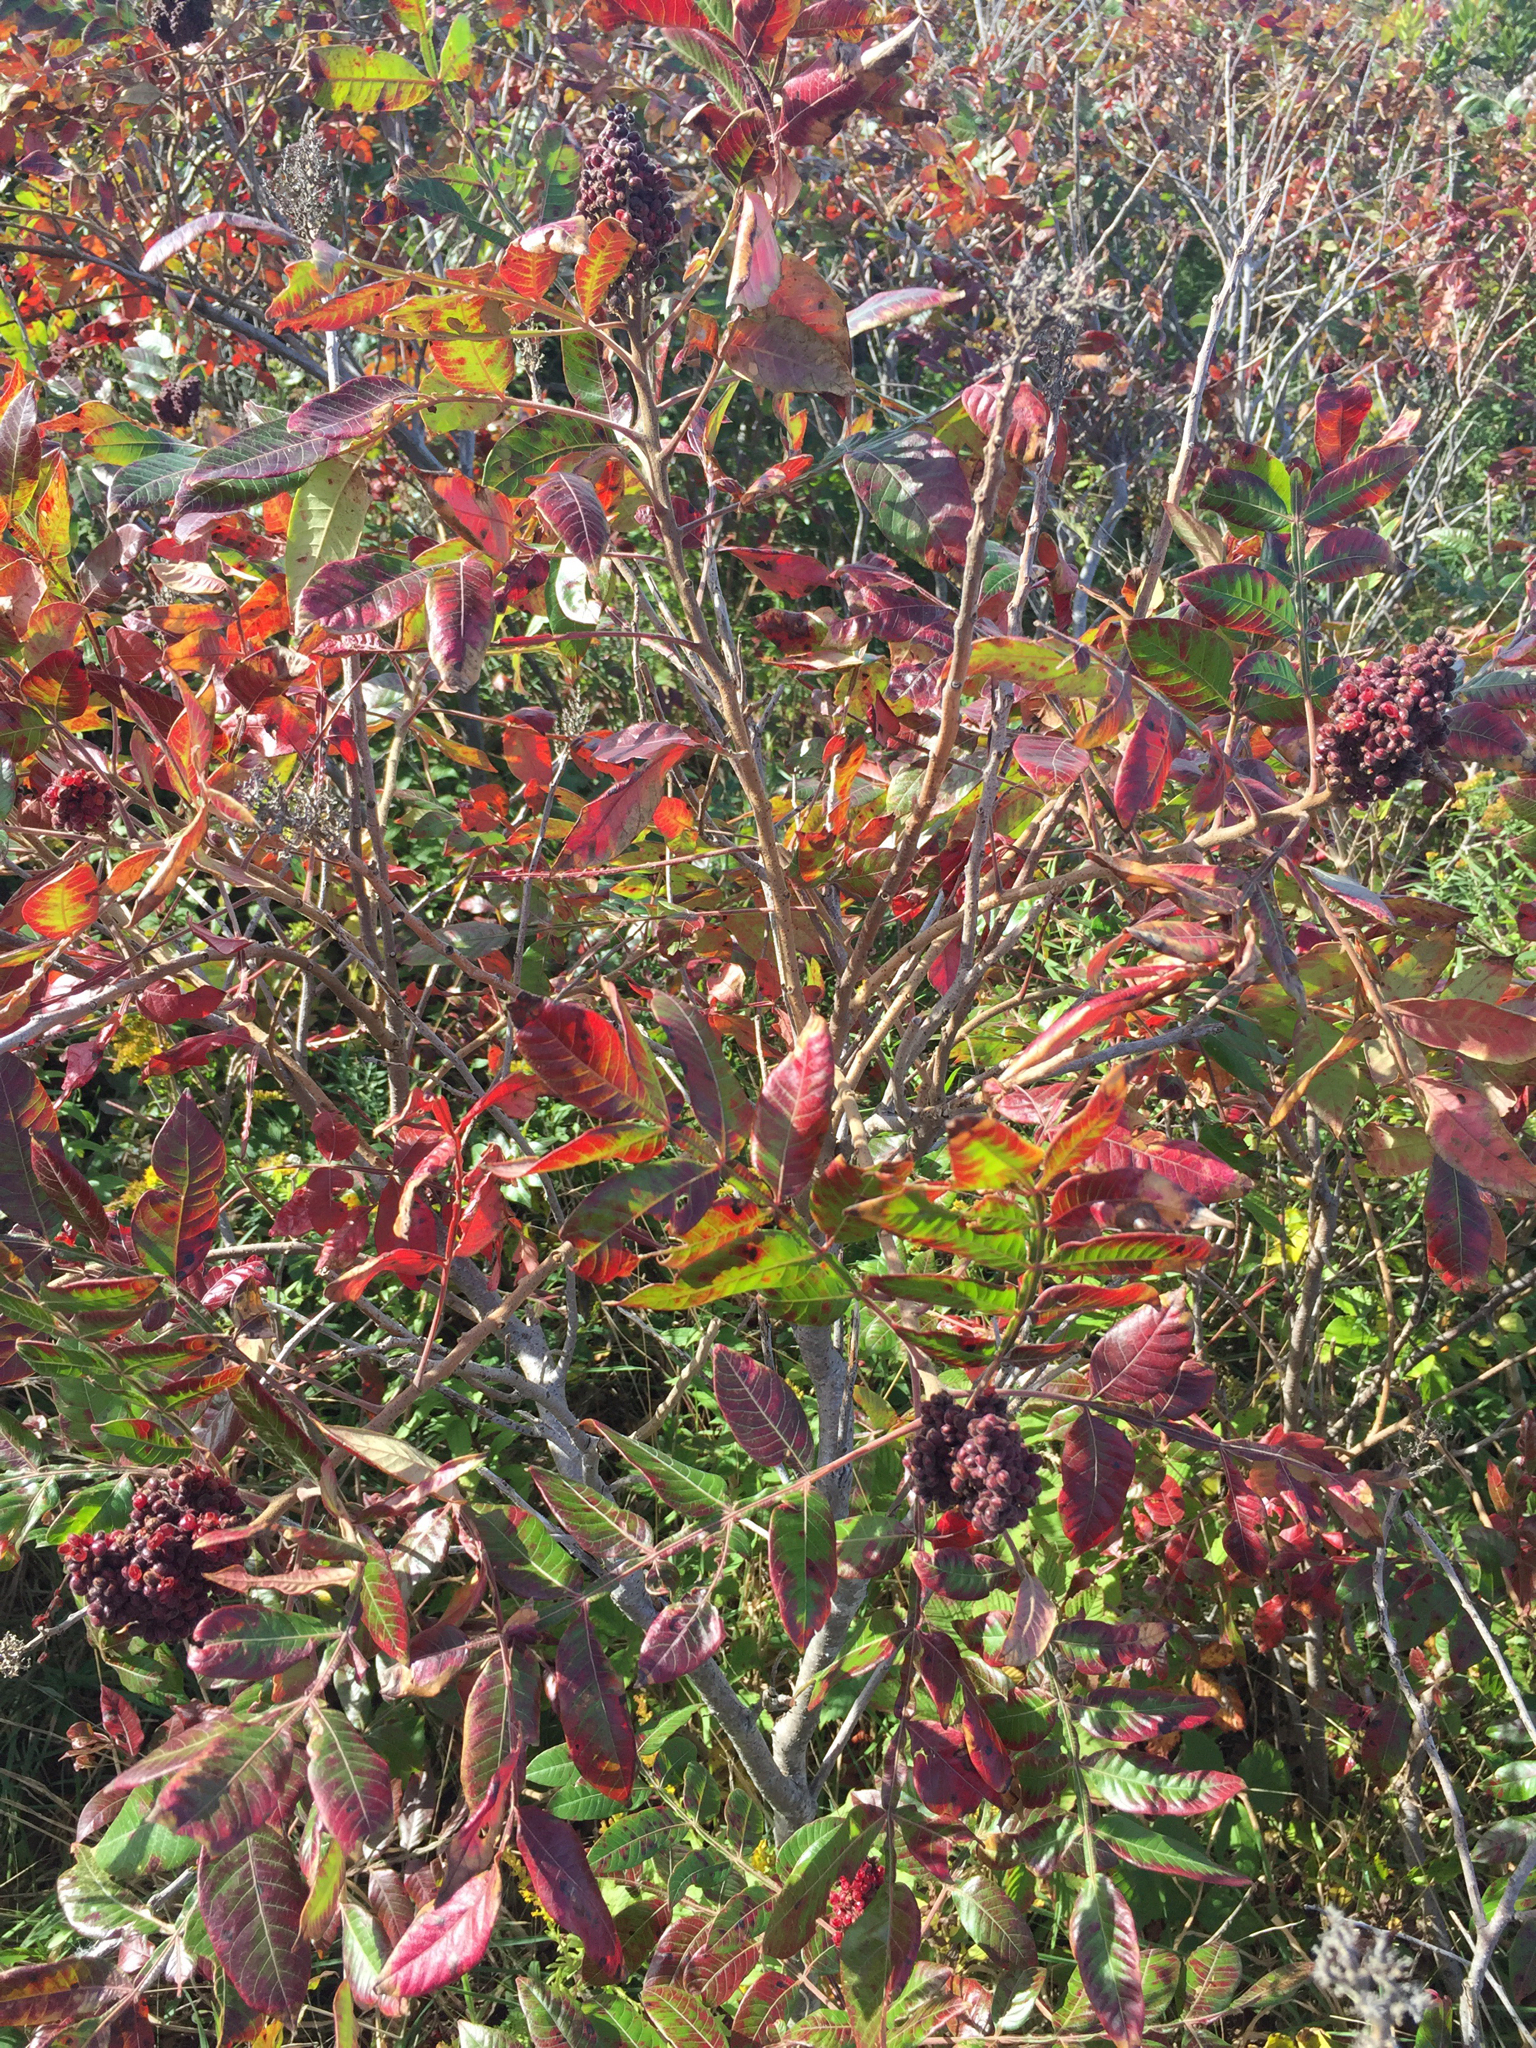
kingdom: Plantae
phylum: Tracheophyta
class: Magnoliopsida
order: Sapindales
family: Anacardiaceae
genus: Rhus
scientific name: Rhus copallina
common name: Shining sumac
